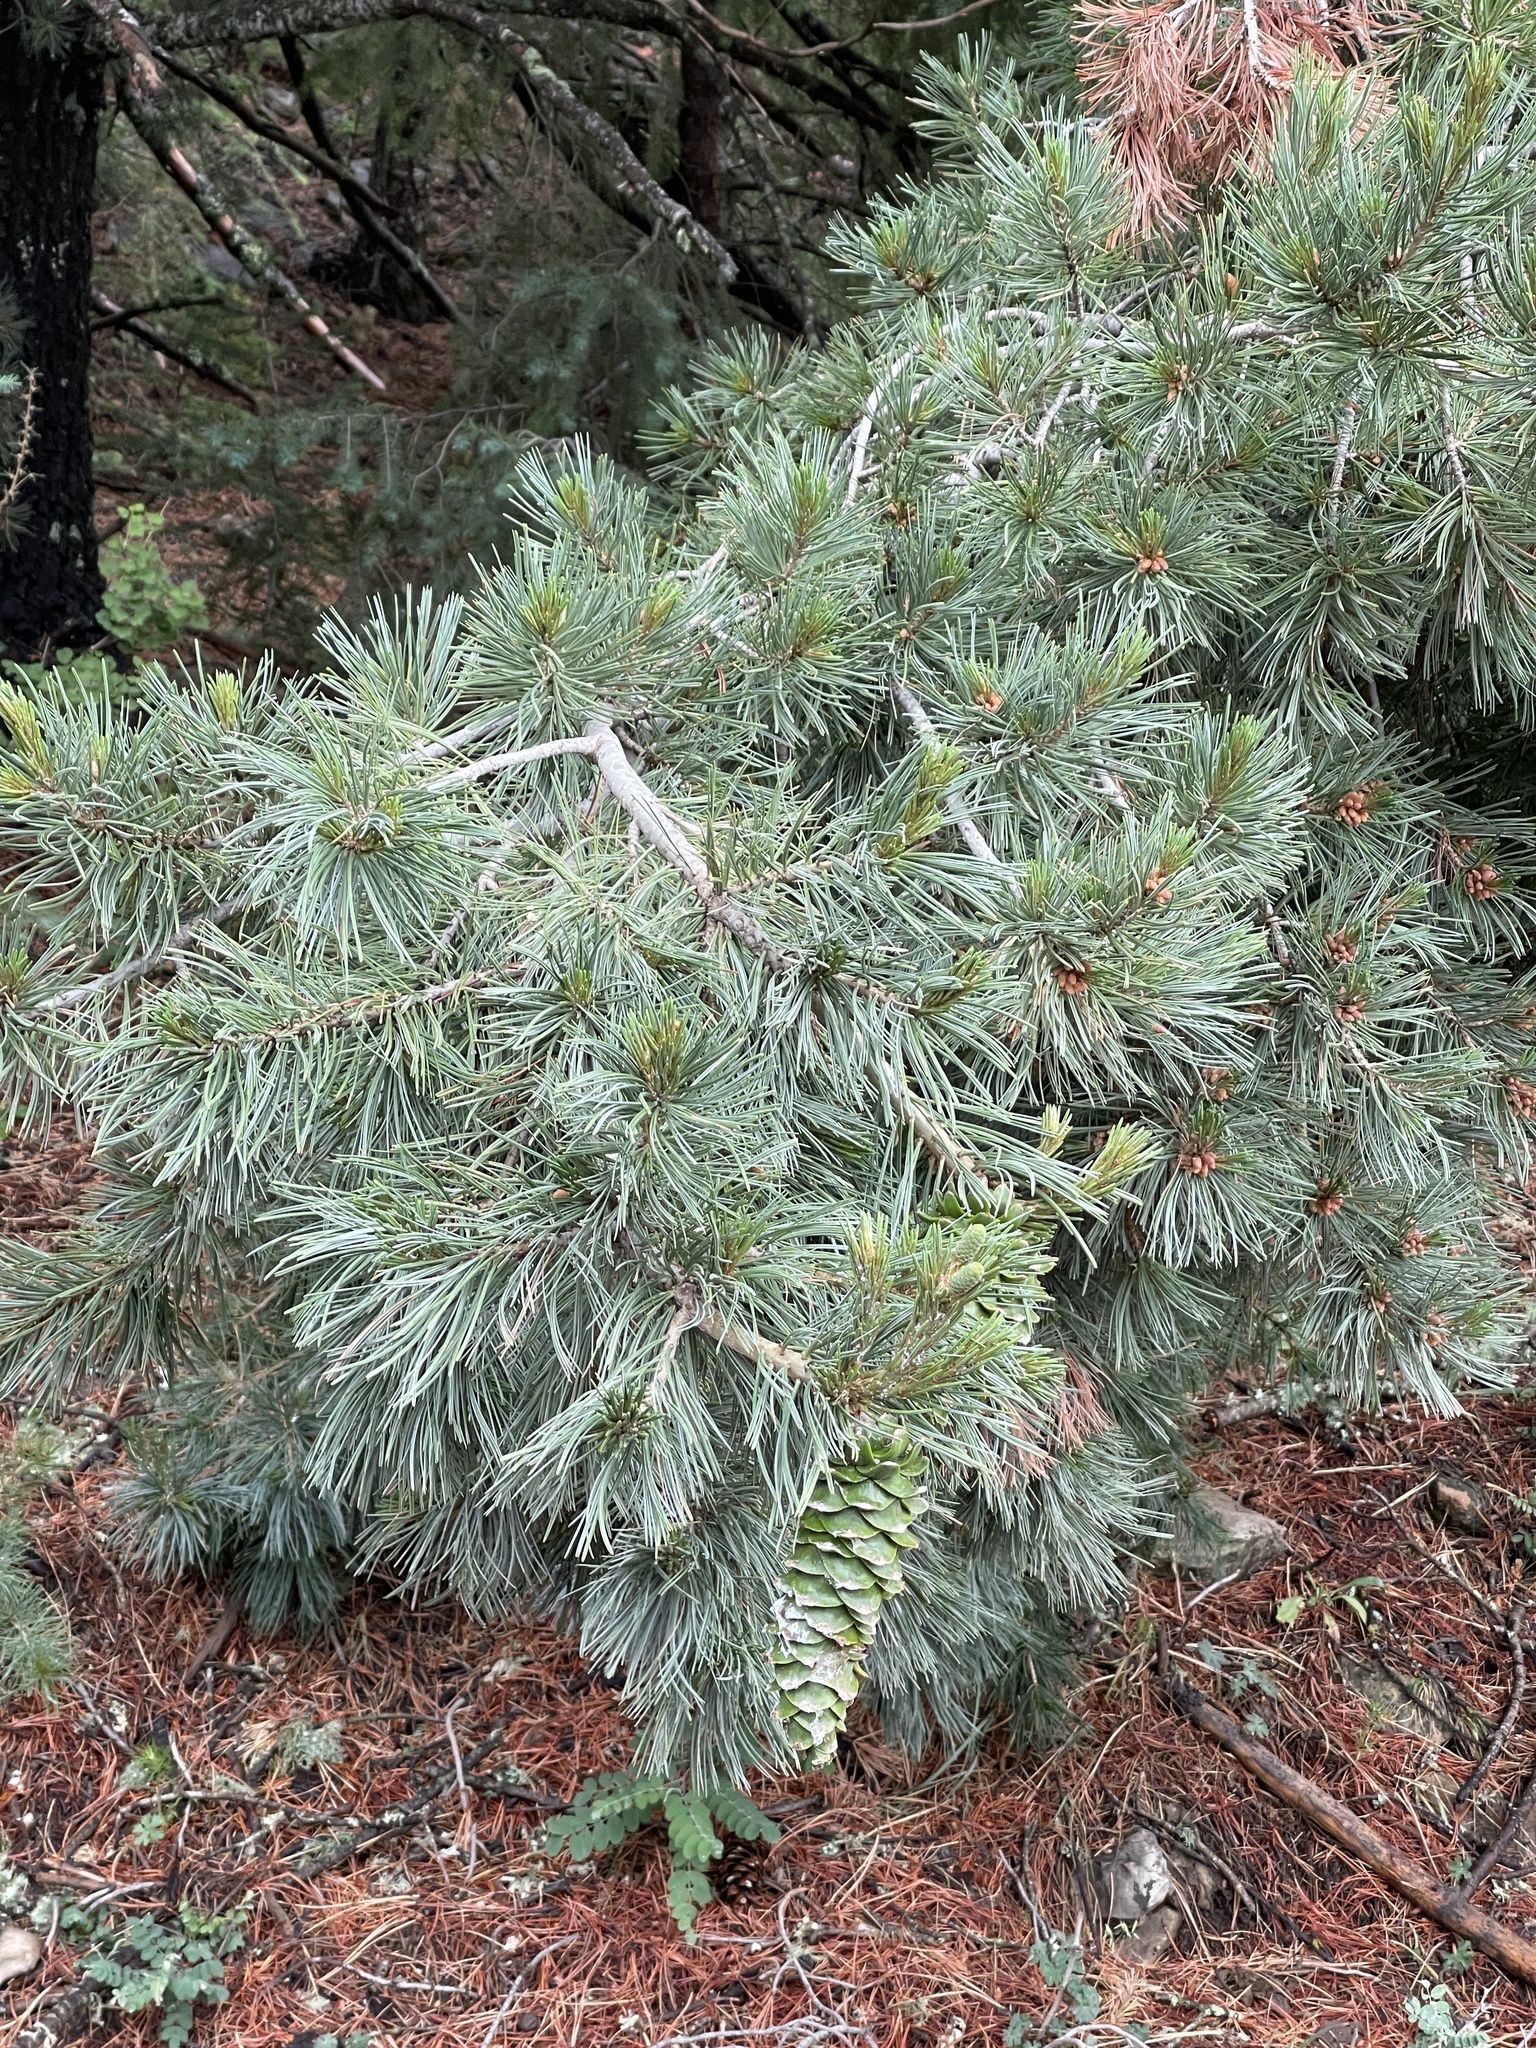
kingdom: Plantae
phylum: Tracheophyta
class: Pinopsida
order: Pinales
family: Pinaceae
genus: Pinus
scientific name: Pinus strobiformis
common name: Southwestern white pine
